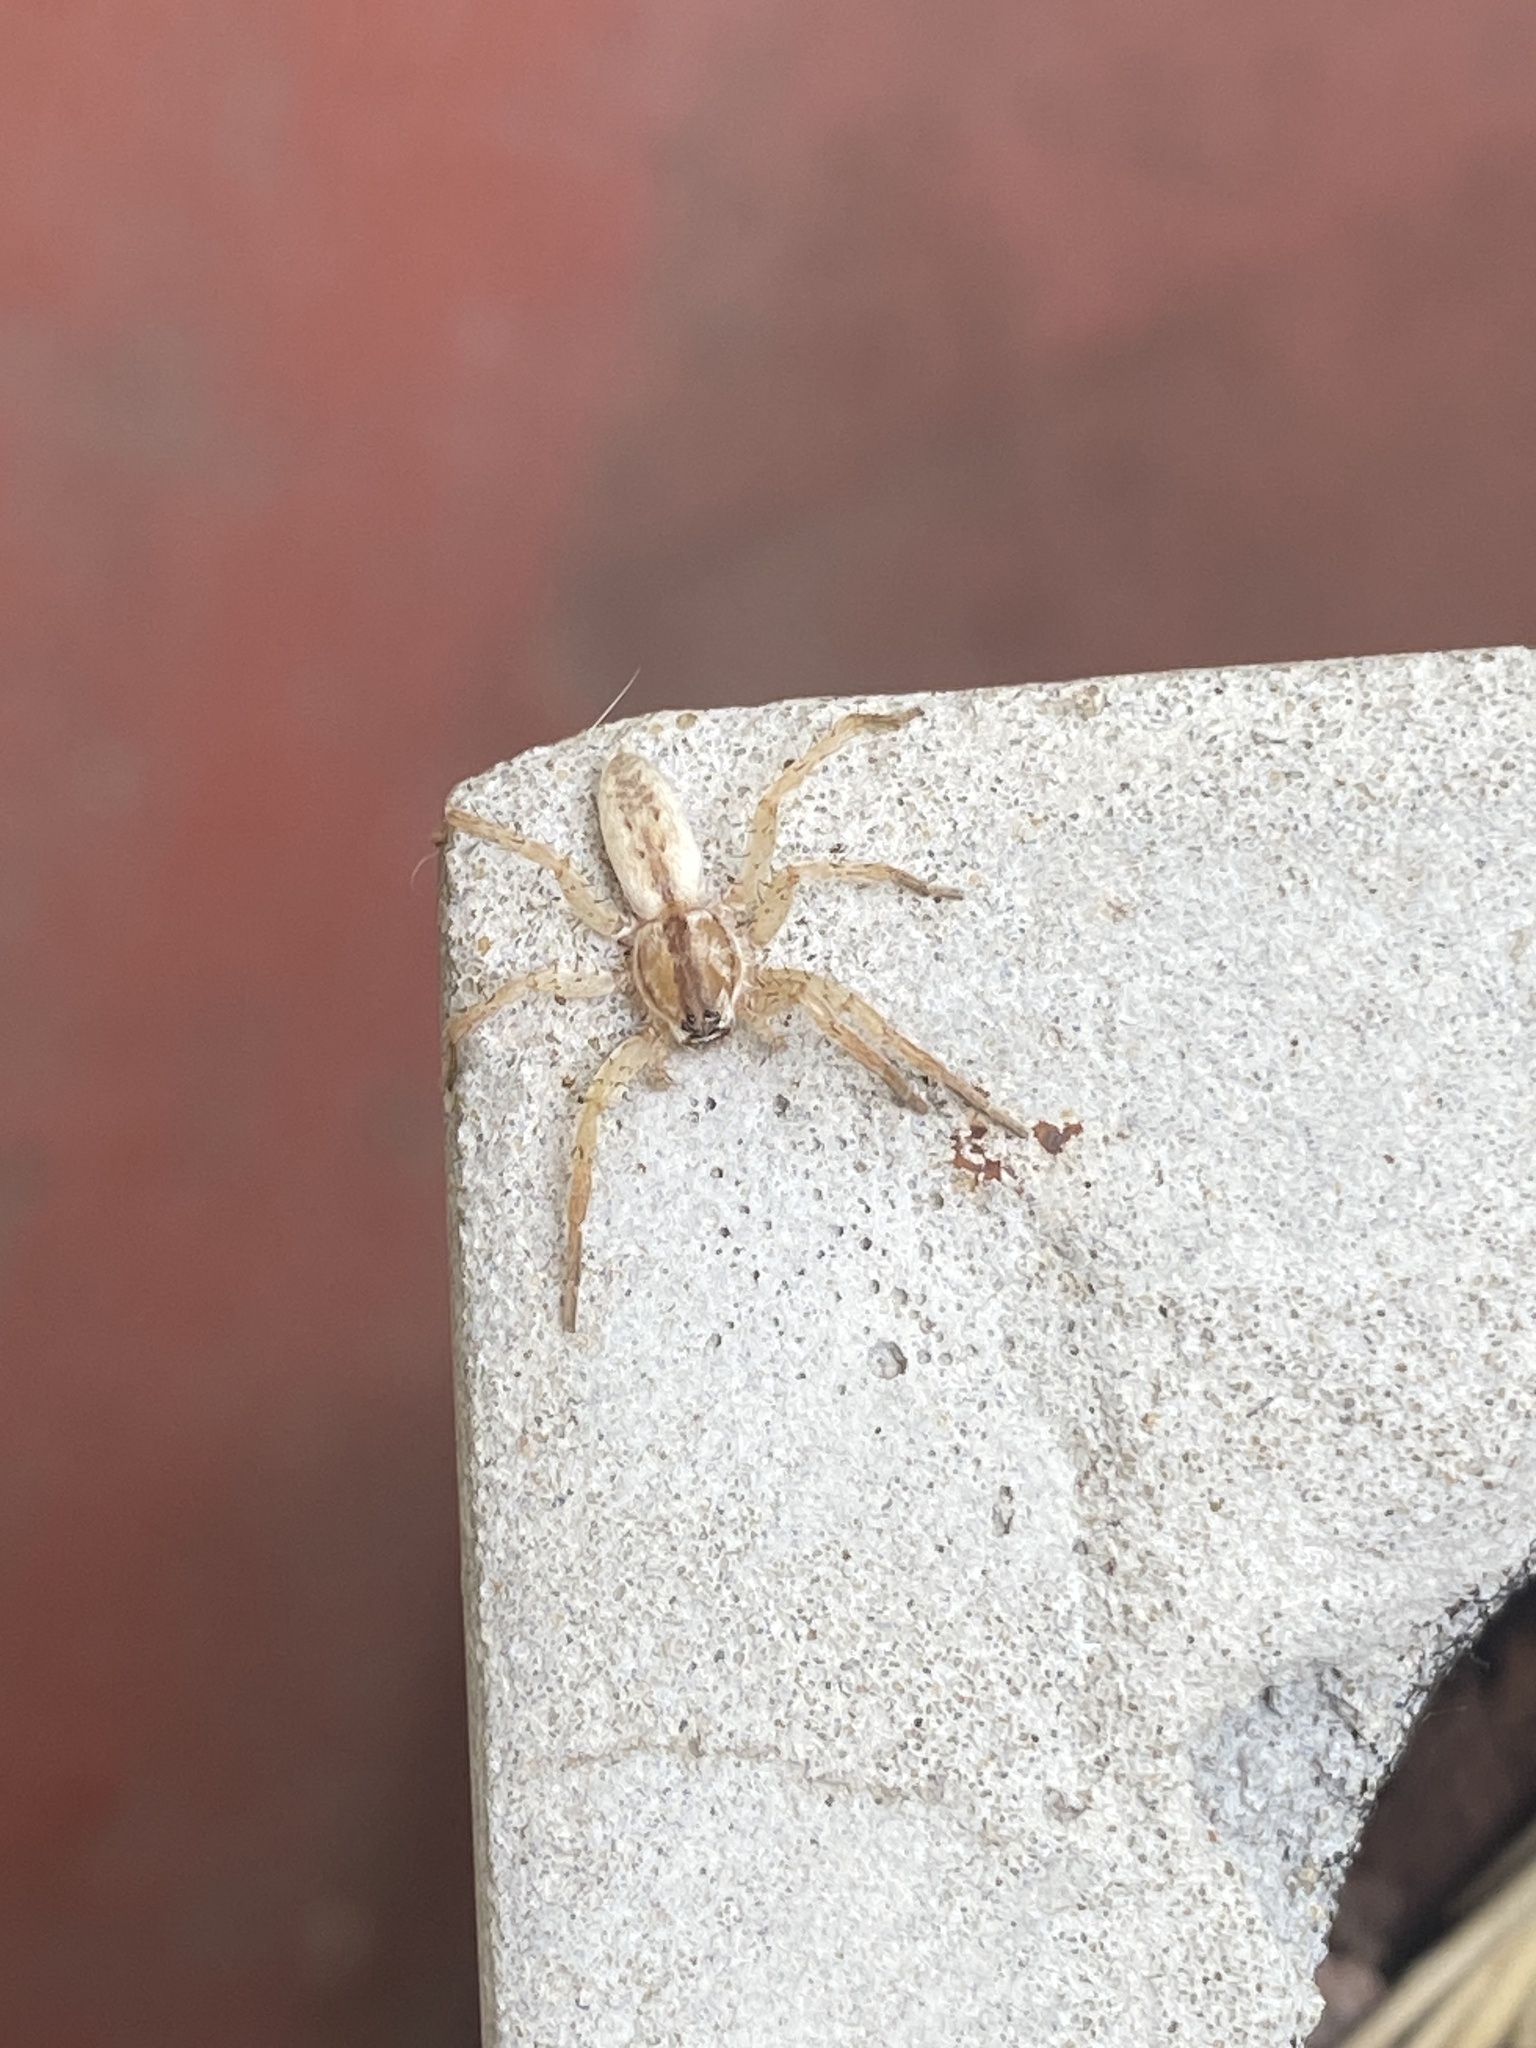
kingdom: Animalia
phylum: Arthropoda
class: Arachnida
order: Araneae
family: Anyphaenidae
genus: Arachosia
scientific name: Arachosia praesignis
